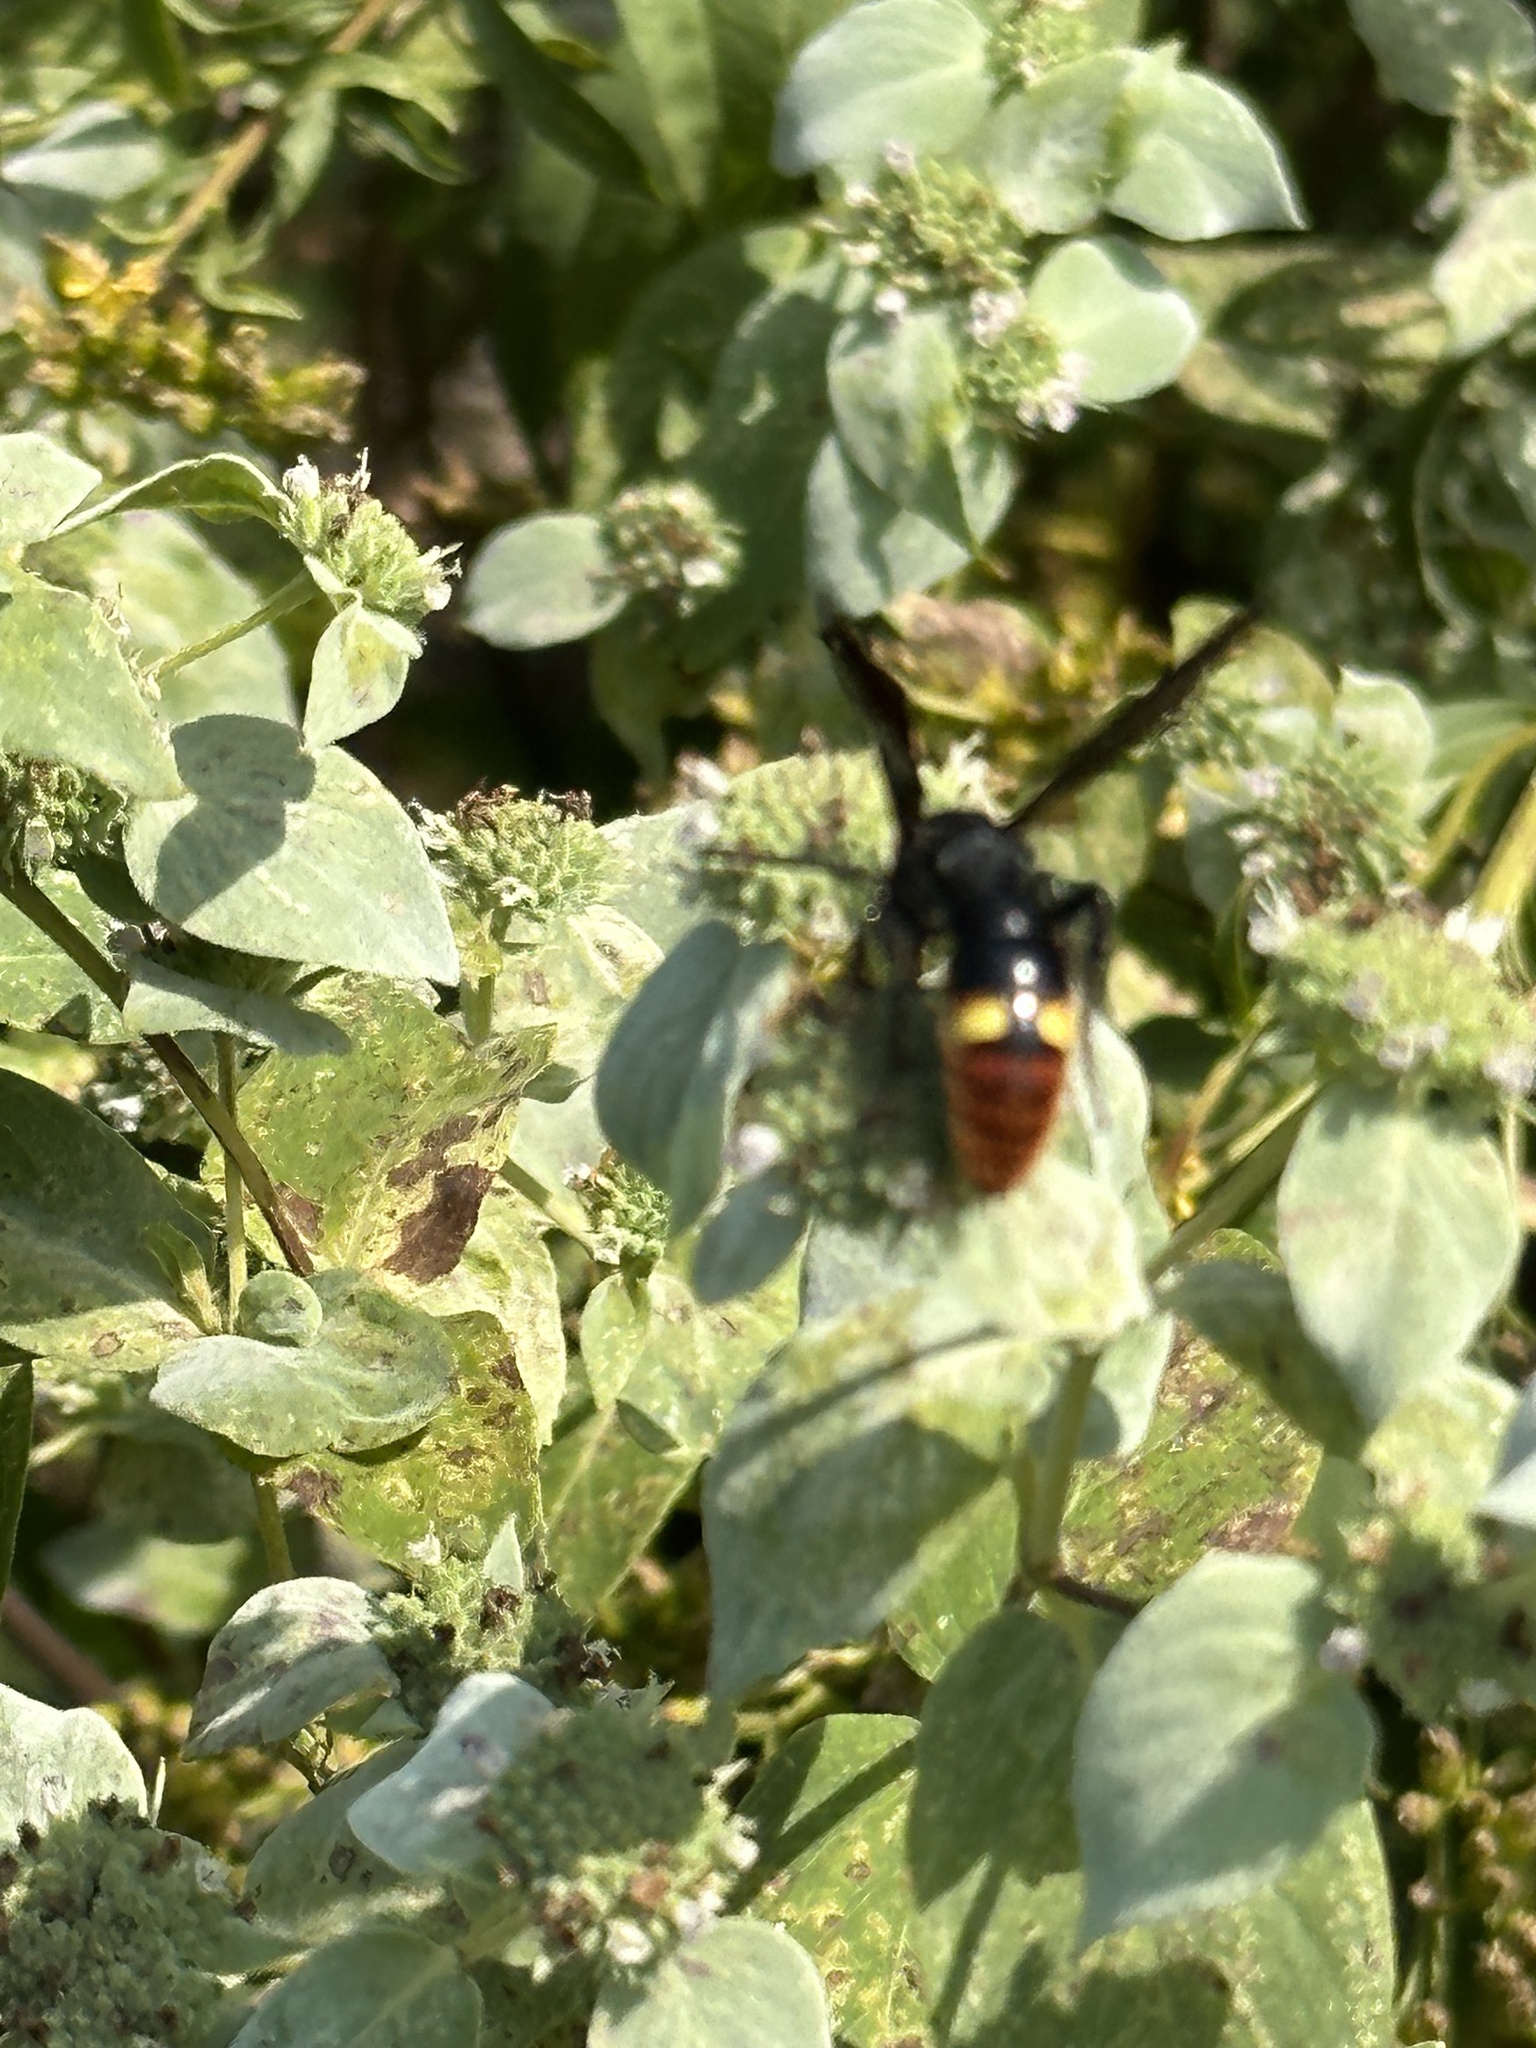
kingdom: Animalia
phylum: Arthropoda
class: Insecta
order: Hymenoptera
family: Scoliidae
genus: Scolia
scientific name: Scolia dubia
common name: Blue-winged scoliid wasp
